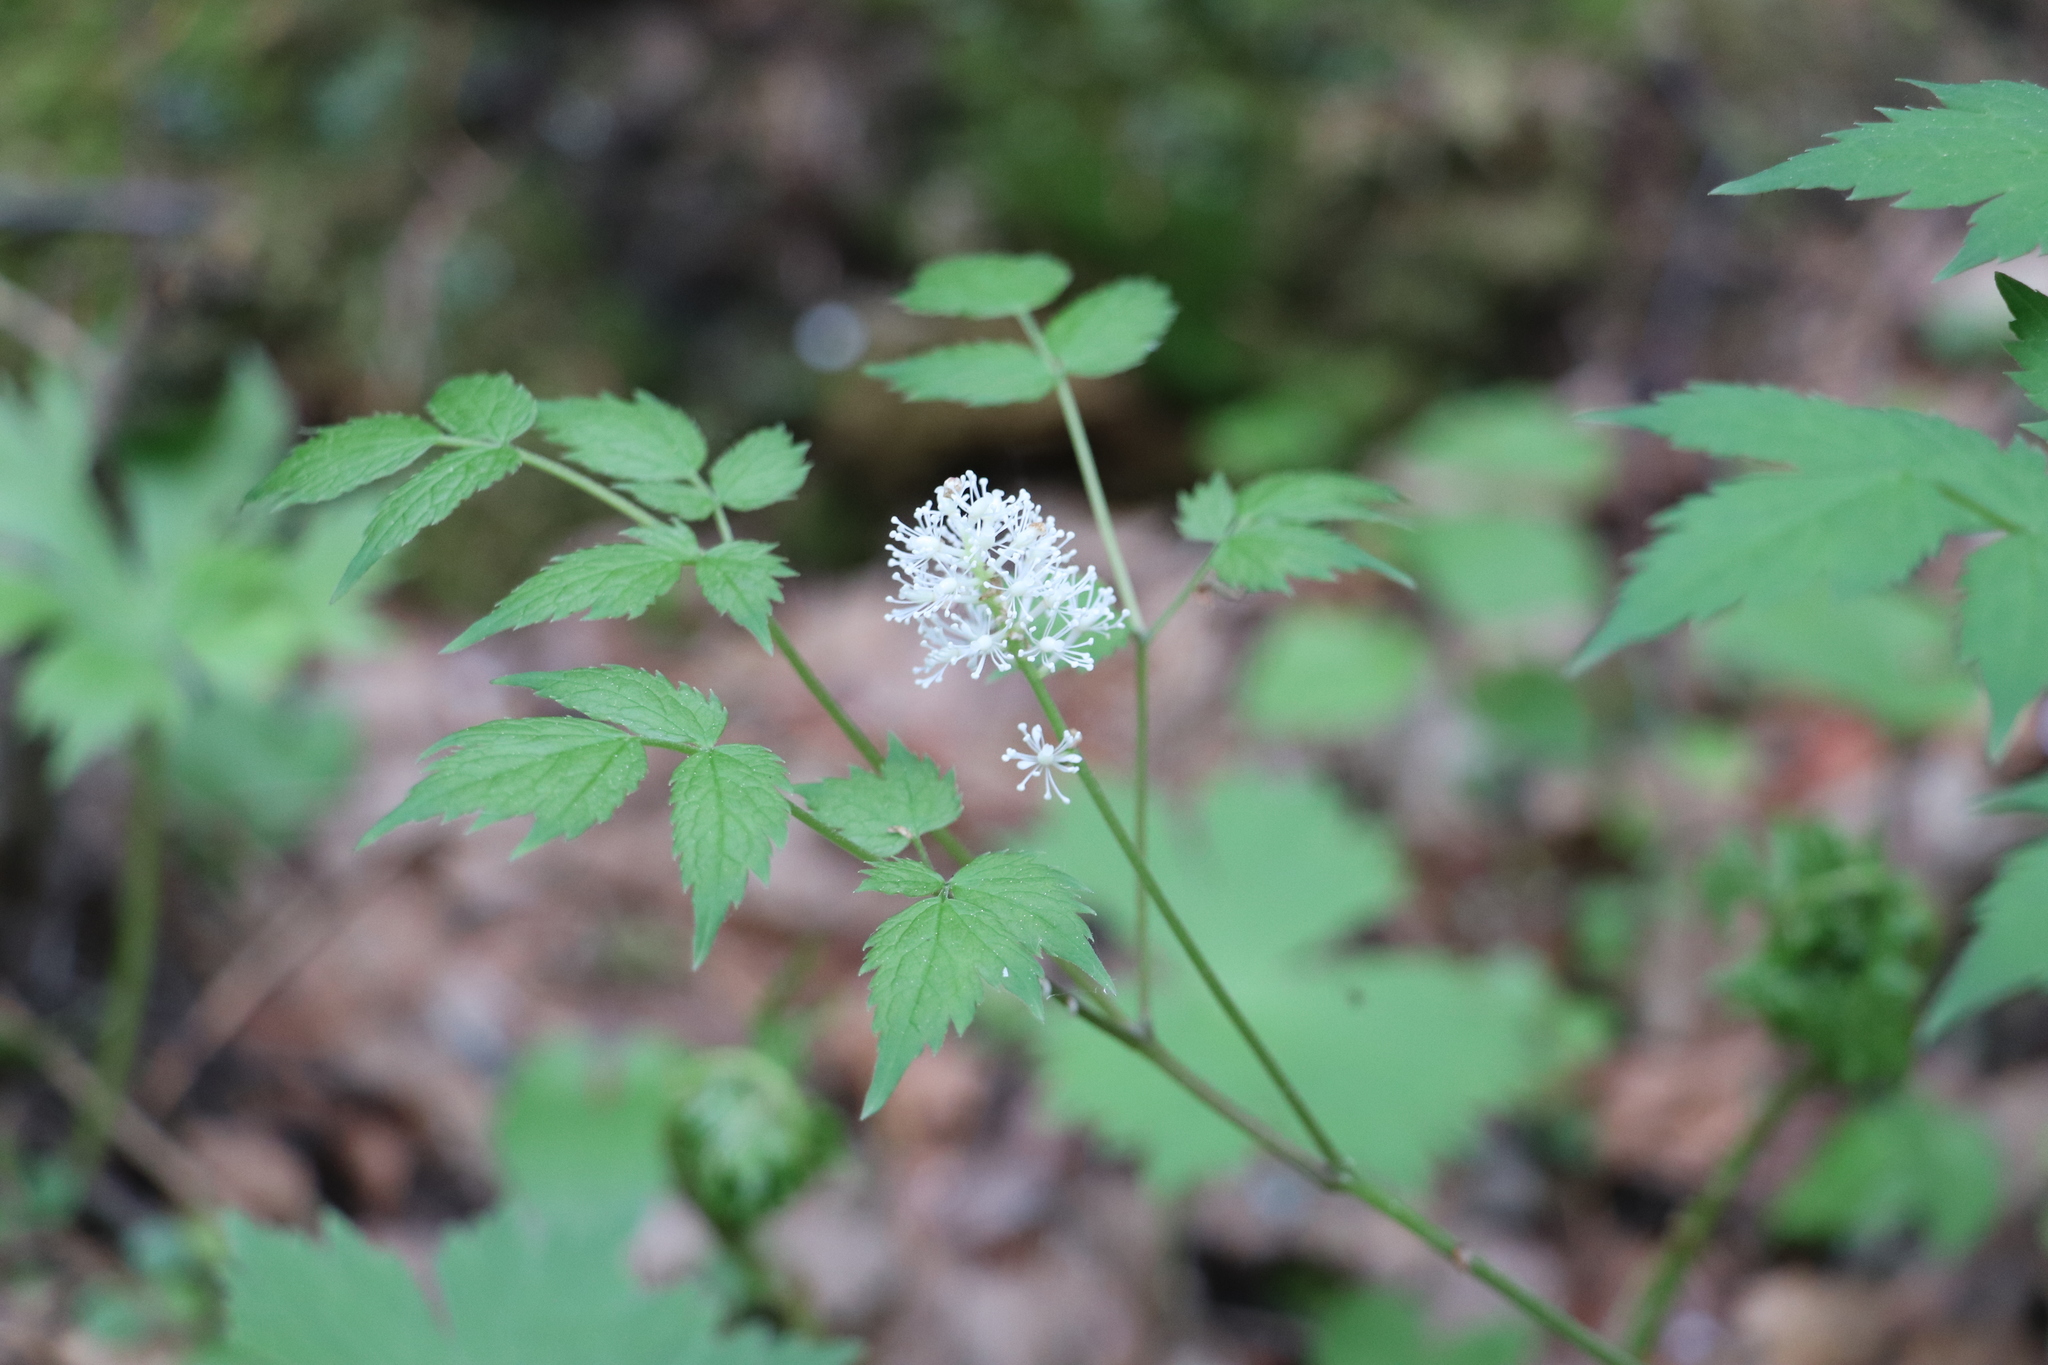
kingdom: Plantae
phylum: Tracheophyta
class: Magnoliopsida
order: Ranunculales
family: Ranunculaceae
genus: Actaea
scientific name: Actaea erythrocarpa
